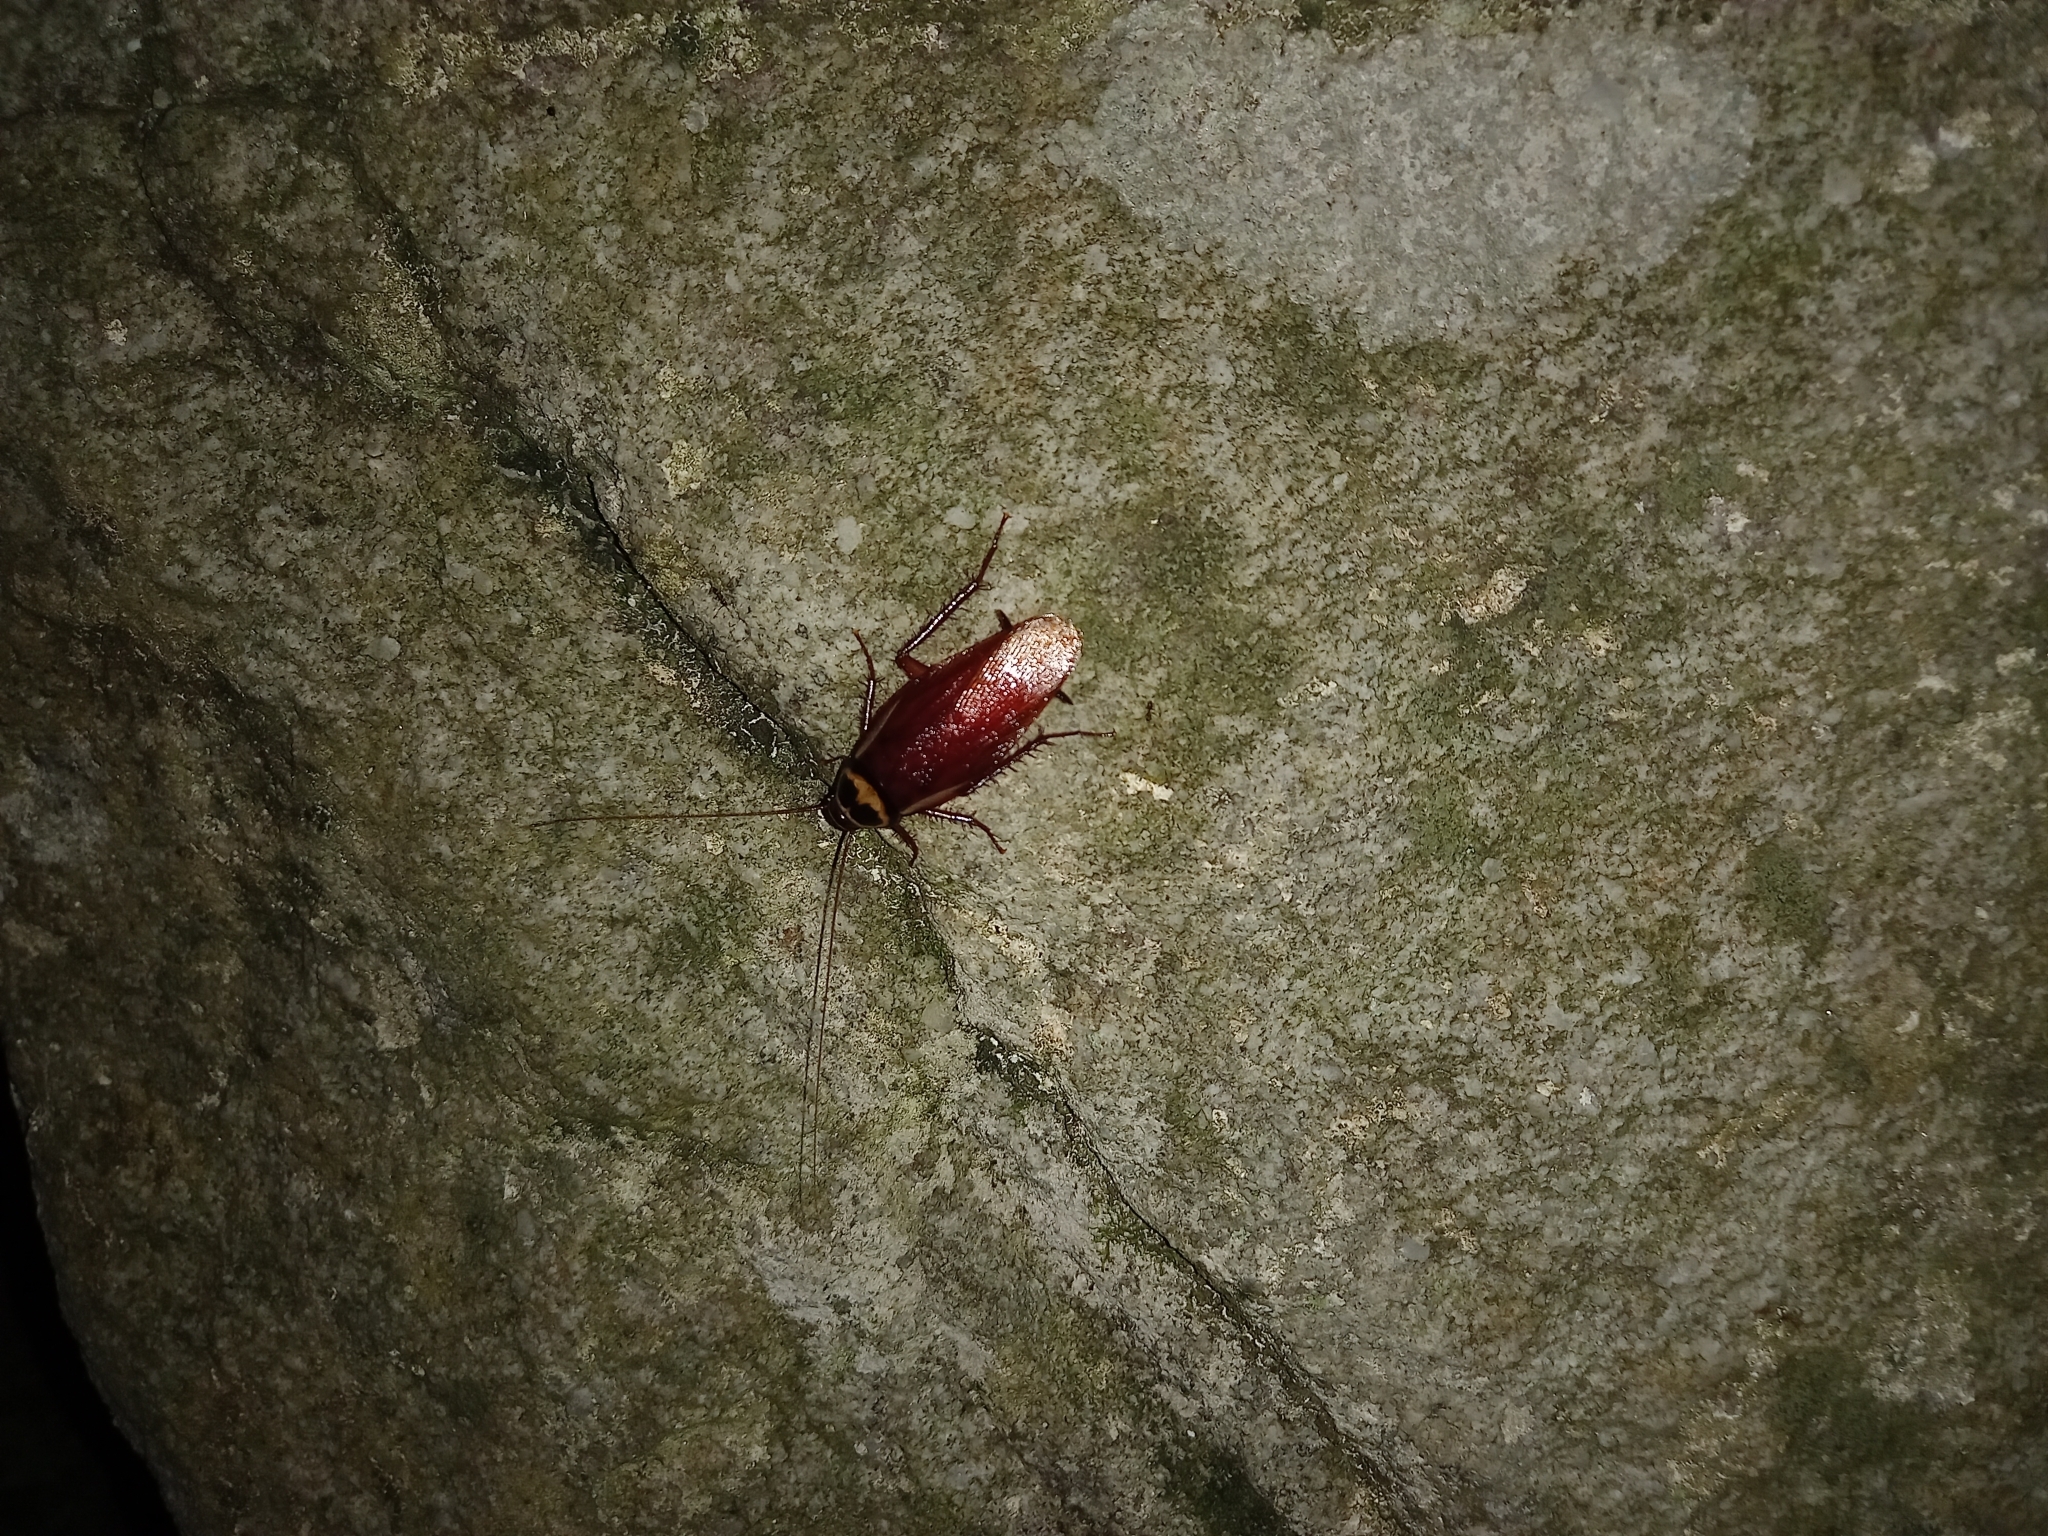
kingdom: Animalia
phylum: Arthropoda
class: Insecta
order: Blattodea
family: Blattidae
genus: Periplaneta
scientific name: Periplaneta australasiae
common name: Australian cockroach
